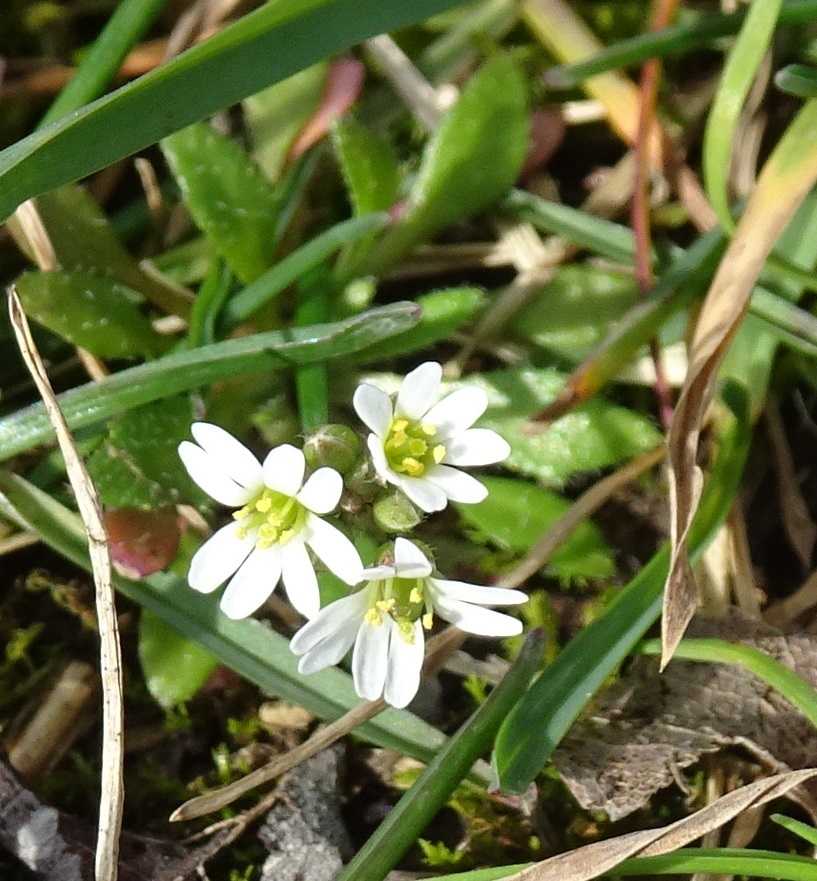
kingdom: Plantae
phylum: Tracheophyta
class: Magnoliopsida
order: Brassicales
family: Brassicaceae
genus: Draba
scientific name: Draba verna
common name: Spring draba
